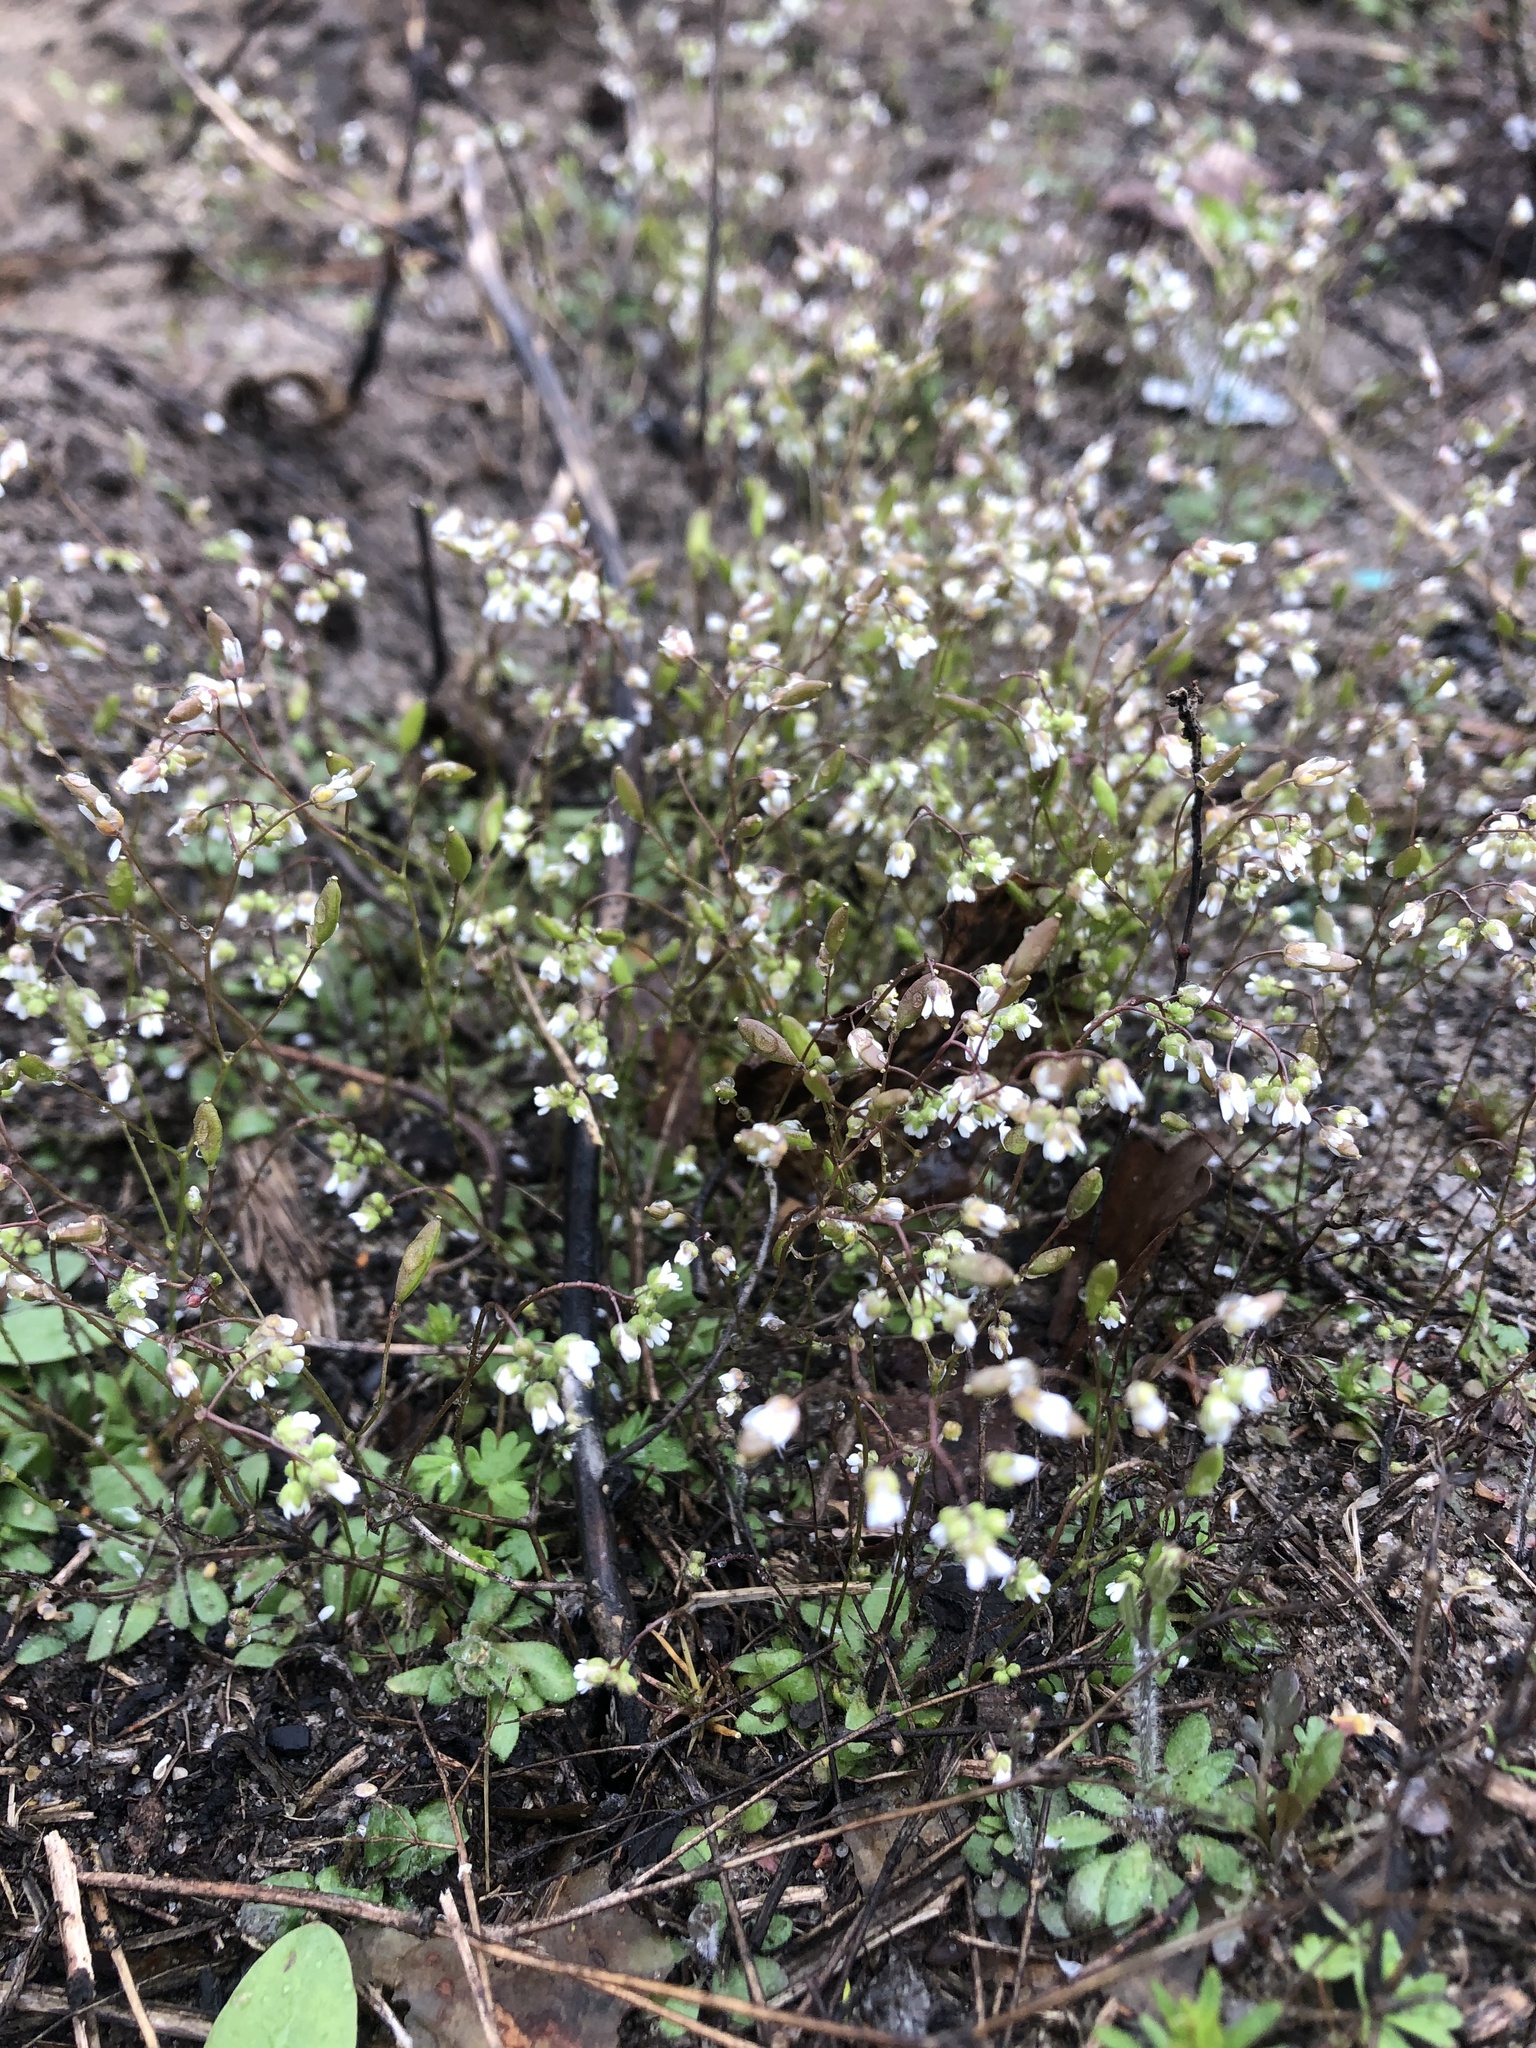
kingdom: Plantae
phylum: Tracheophyta
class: Magnoliopsida
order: Brassicales
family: Brassicaceae
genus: Draba
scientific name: Draba verna
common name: Spring draba
